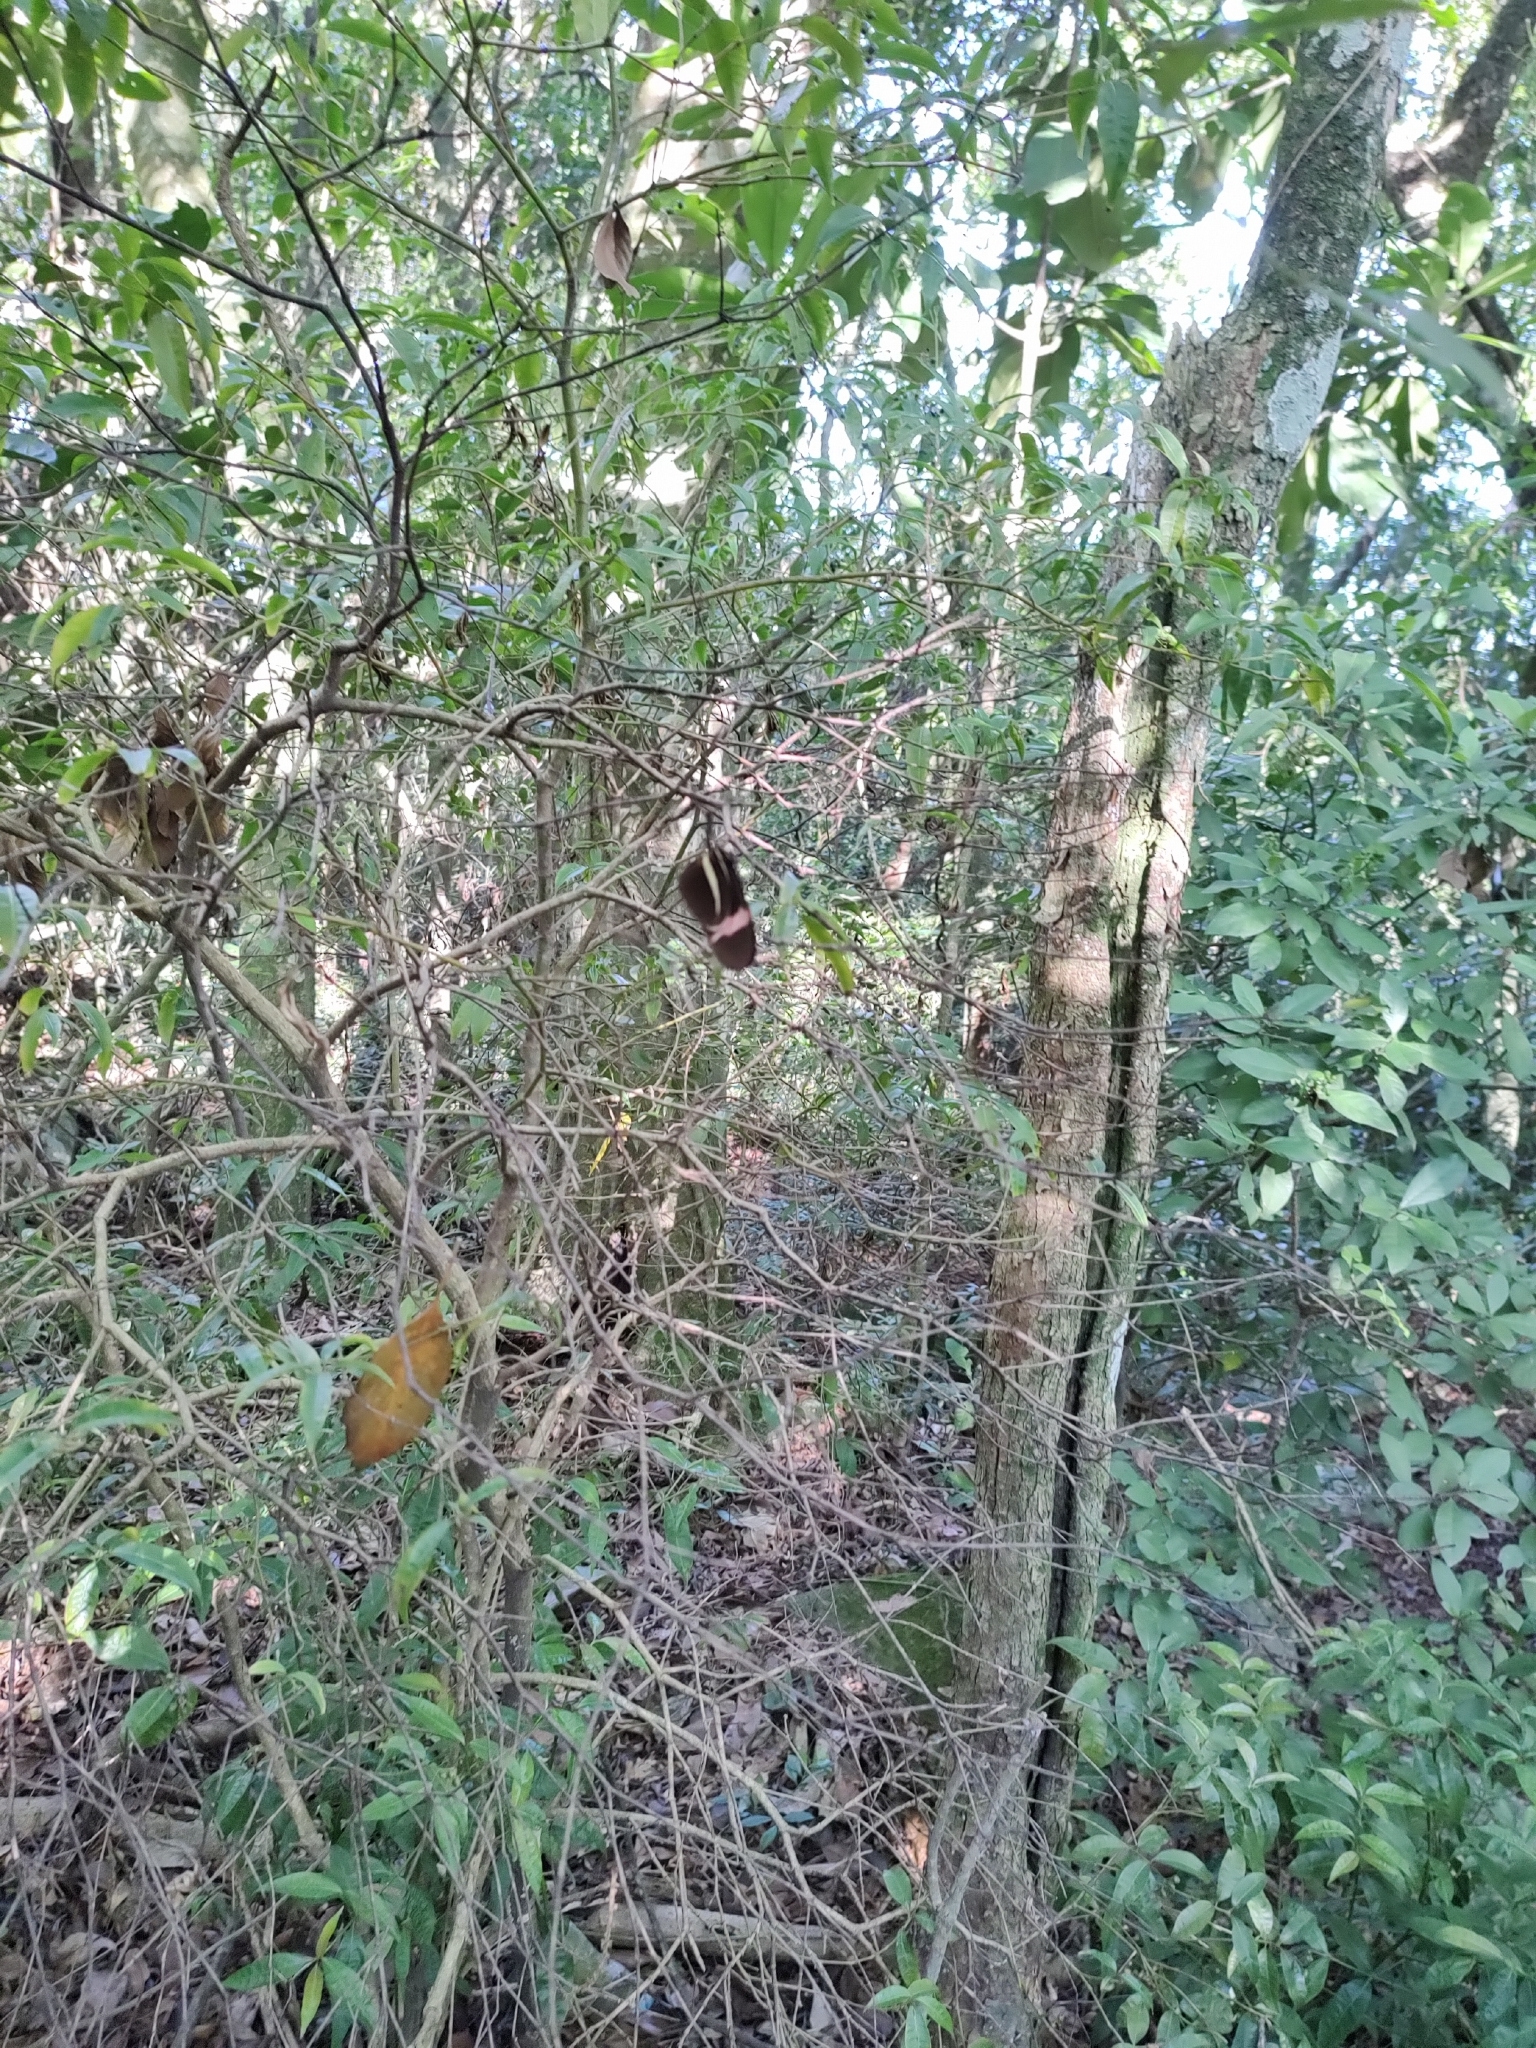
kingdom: Animalia
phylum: Arthropoda
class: Insecta
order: Lepidoptera
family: Nymphalidae
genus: Heliconius
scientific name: Heliconius erato
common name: Common patch longwing
